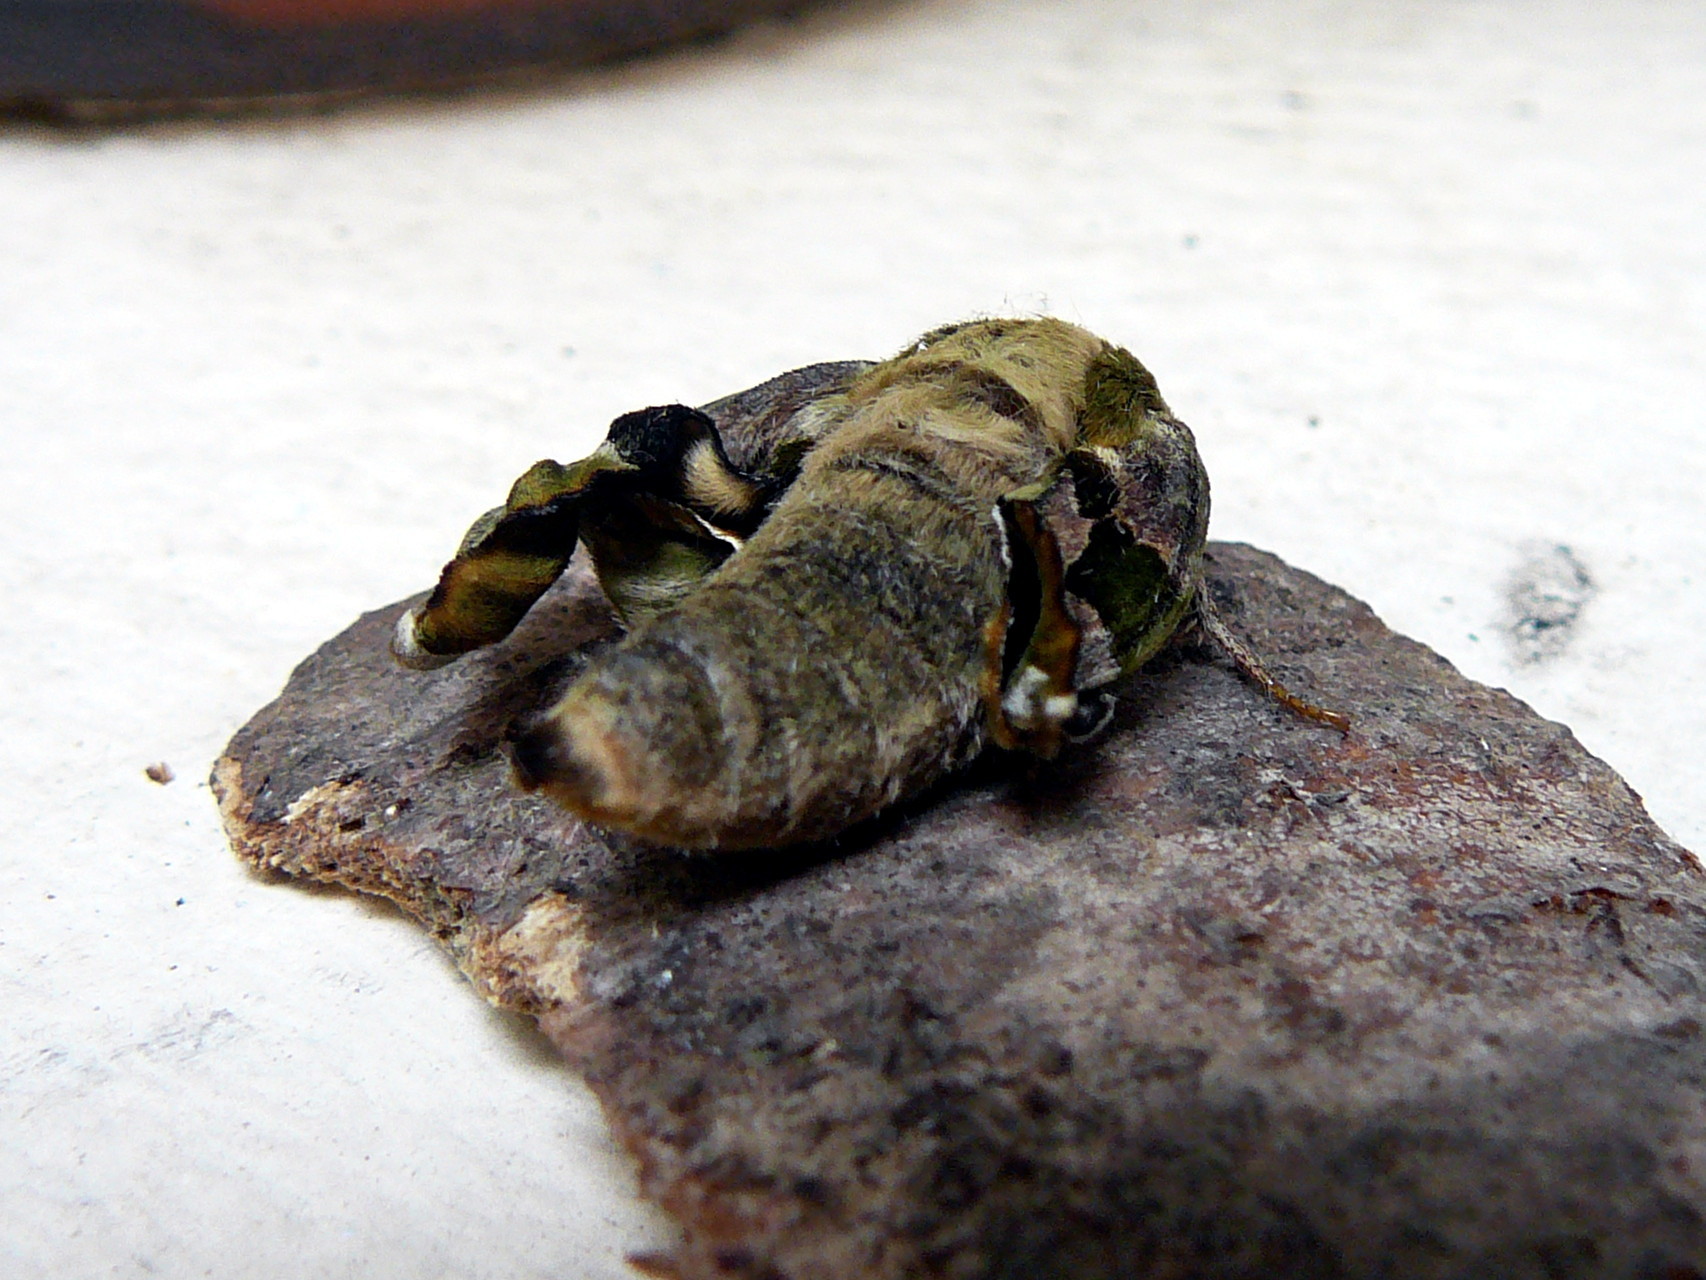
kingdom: Animalia
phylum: Arthropoda
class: Insecta
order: Lepidoptera
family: Sphingidae
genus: Mimas
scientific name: Mimas tiliae
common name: Lime hawk-moth
